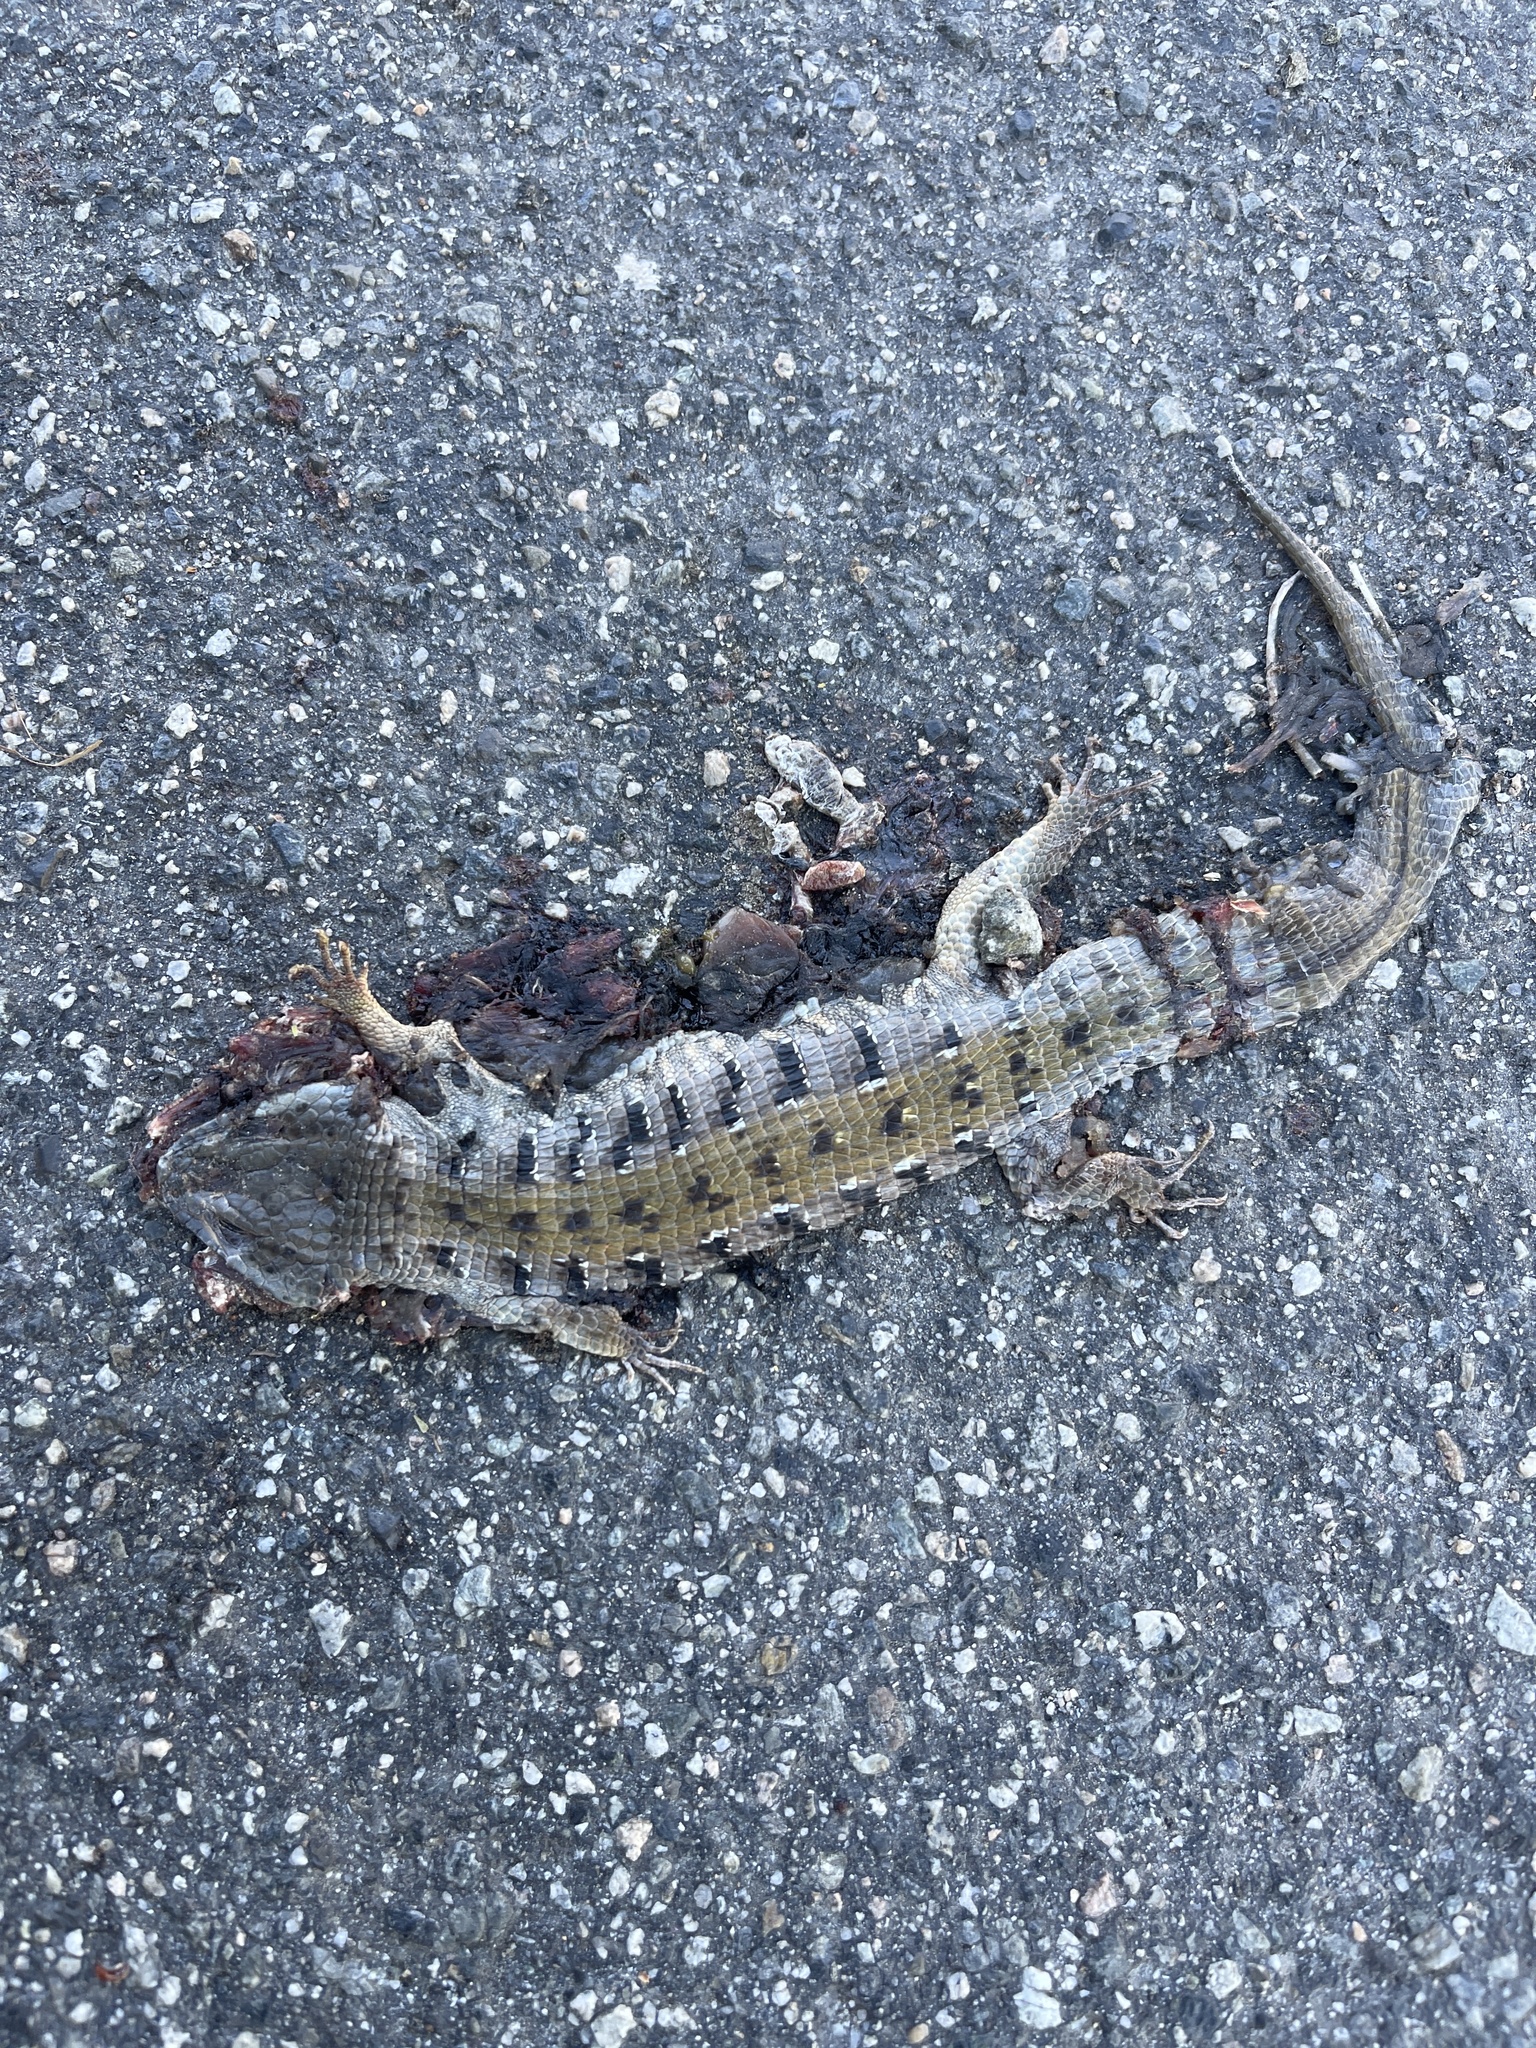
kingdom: Animalia
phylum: Chordata
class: Squamata
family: Anguidae
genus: Elgaria
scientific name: Elgaria multicarinata
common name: Southern alligator lizard
